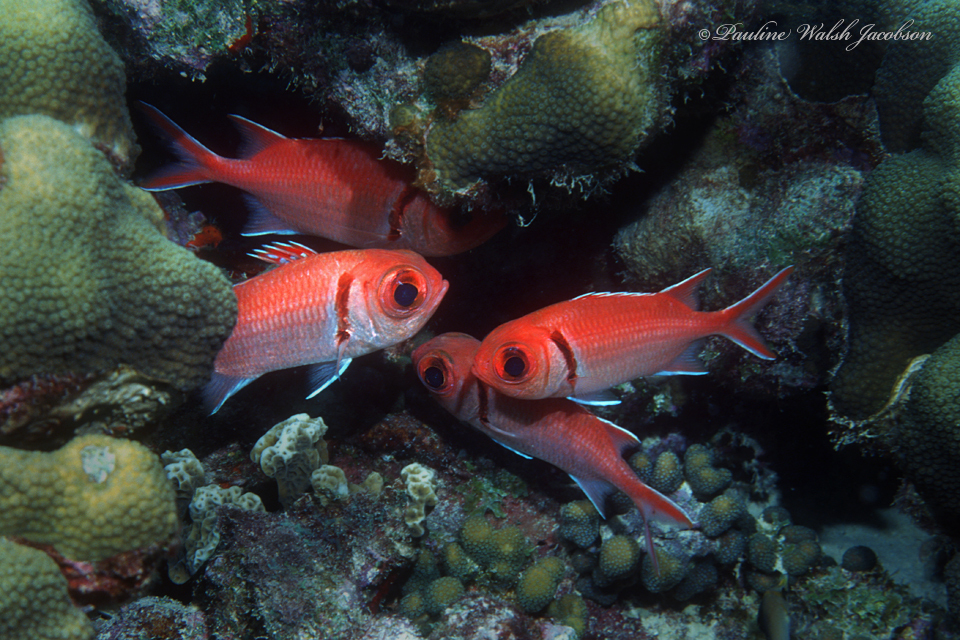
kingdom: Animalia
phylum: Chordata
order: Beryciformes
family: Holocentridae
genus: Myripristis
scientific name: Myripristis jacobus
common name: Blackbar soldierfish
